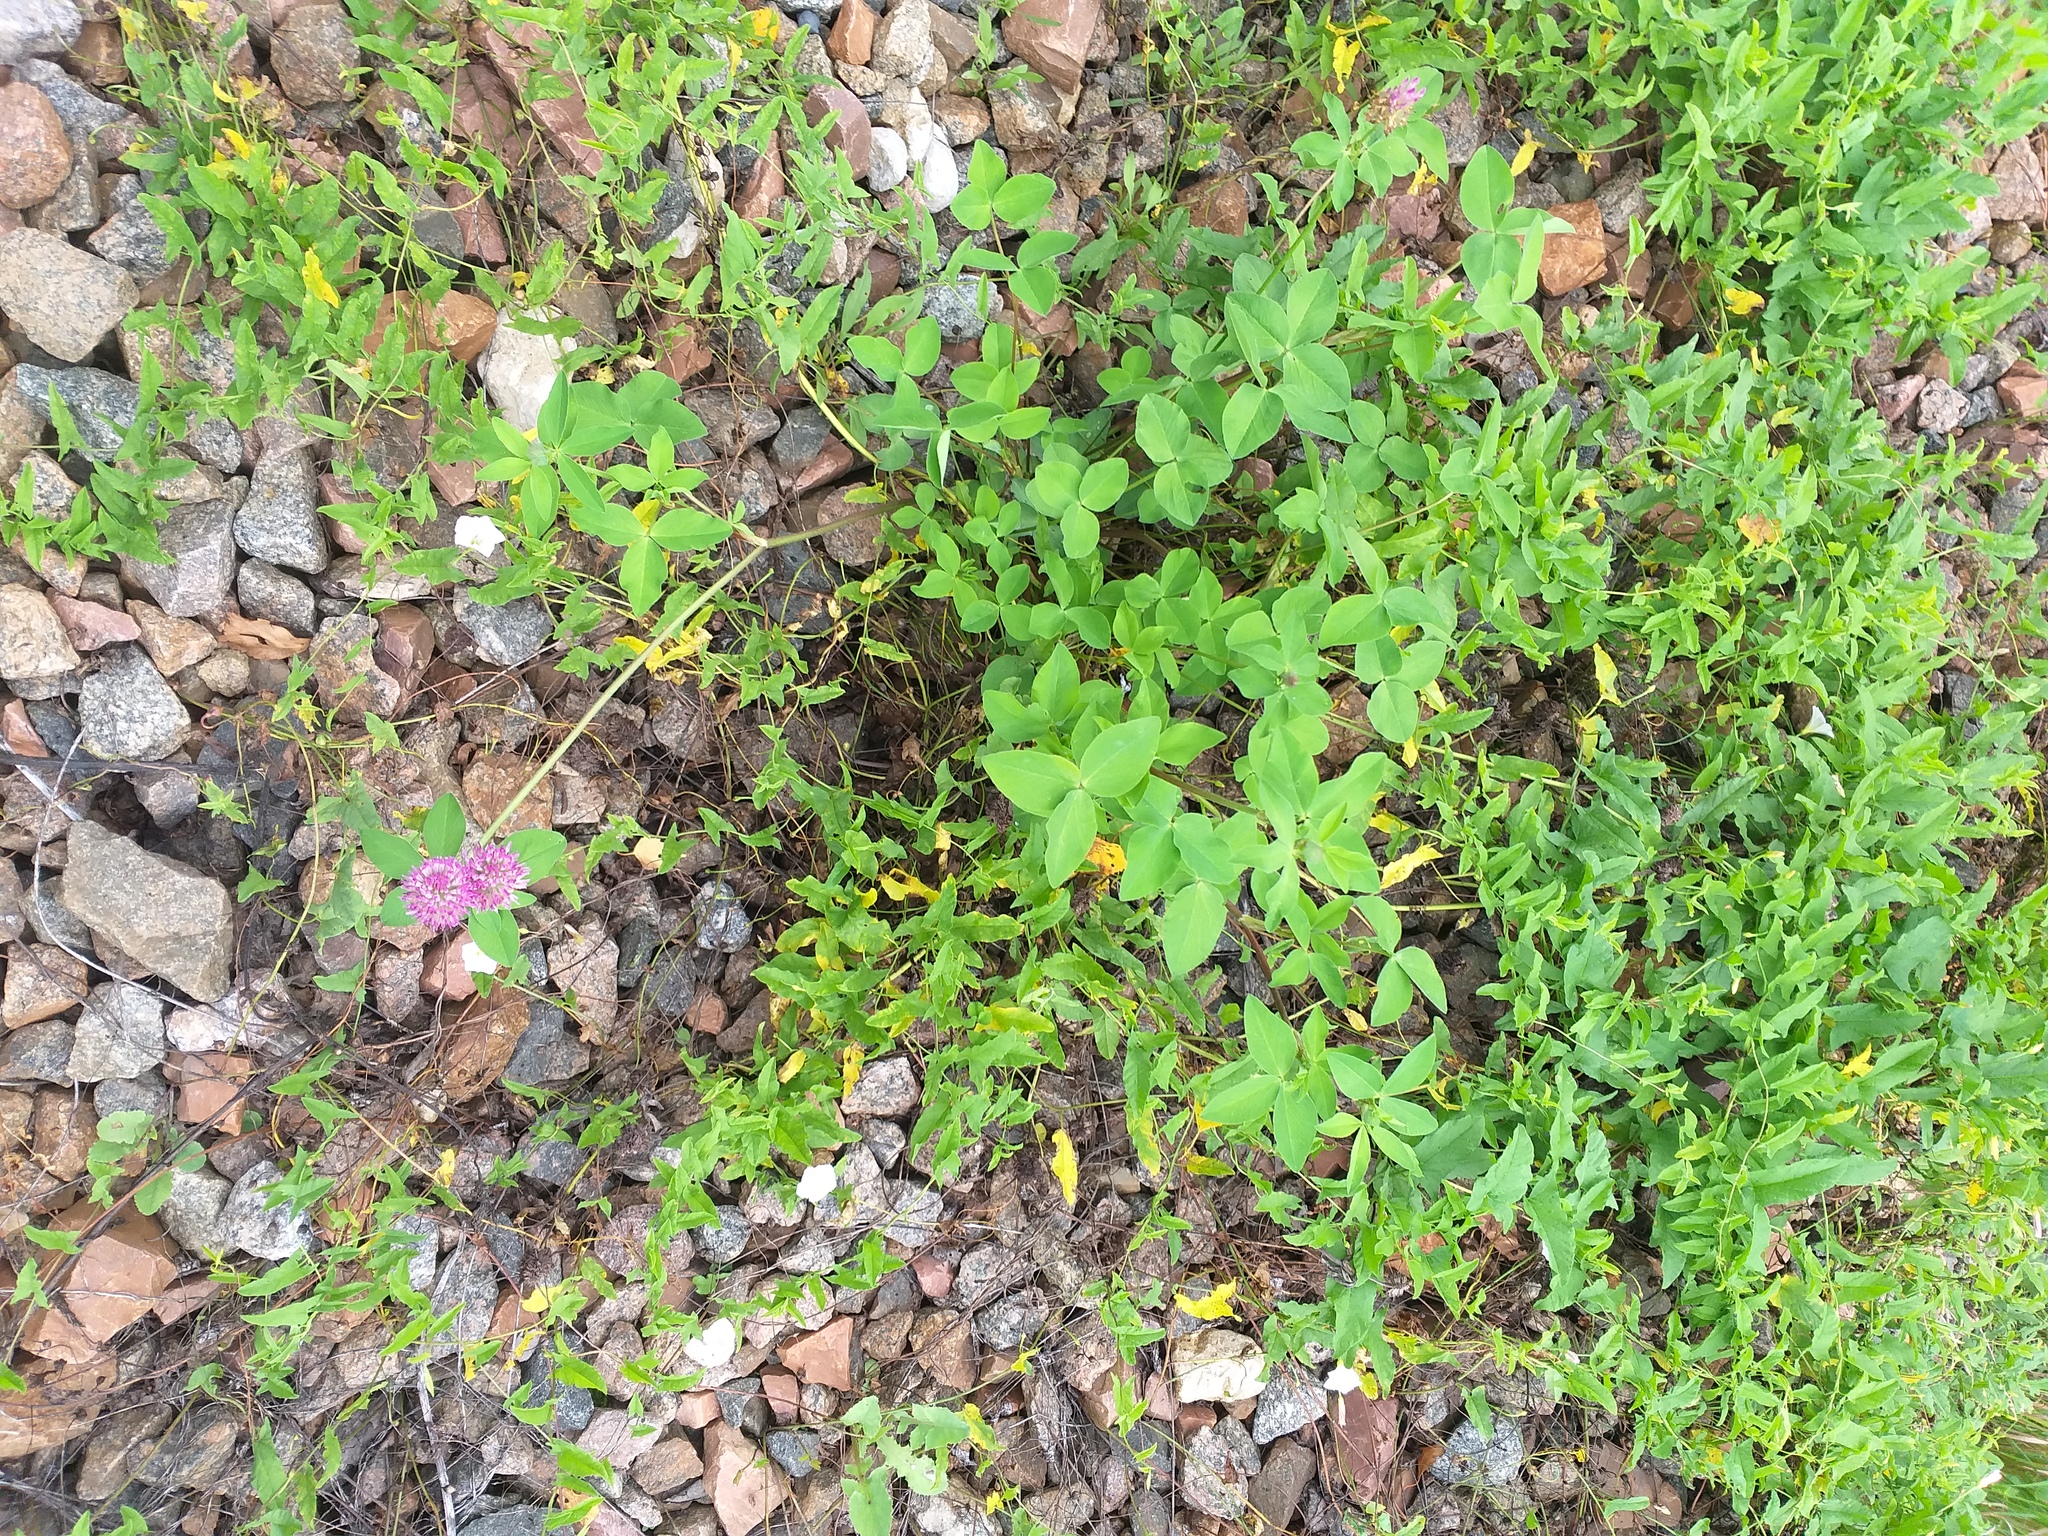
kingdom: Plantae
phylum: Tracheophyta
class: Magnoliopsida
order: Fabales
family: Fabaceae
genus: Trifolium
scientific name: Trifolium pratense
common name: Red clover
